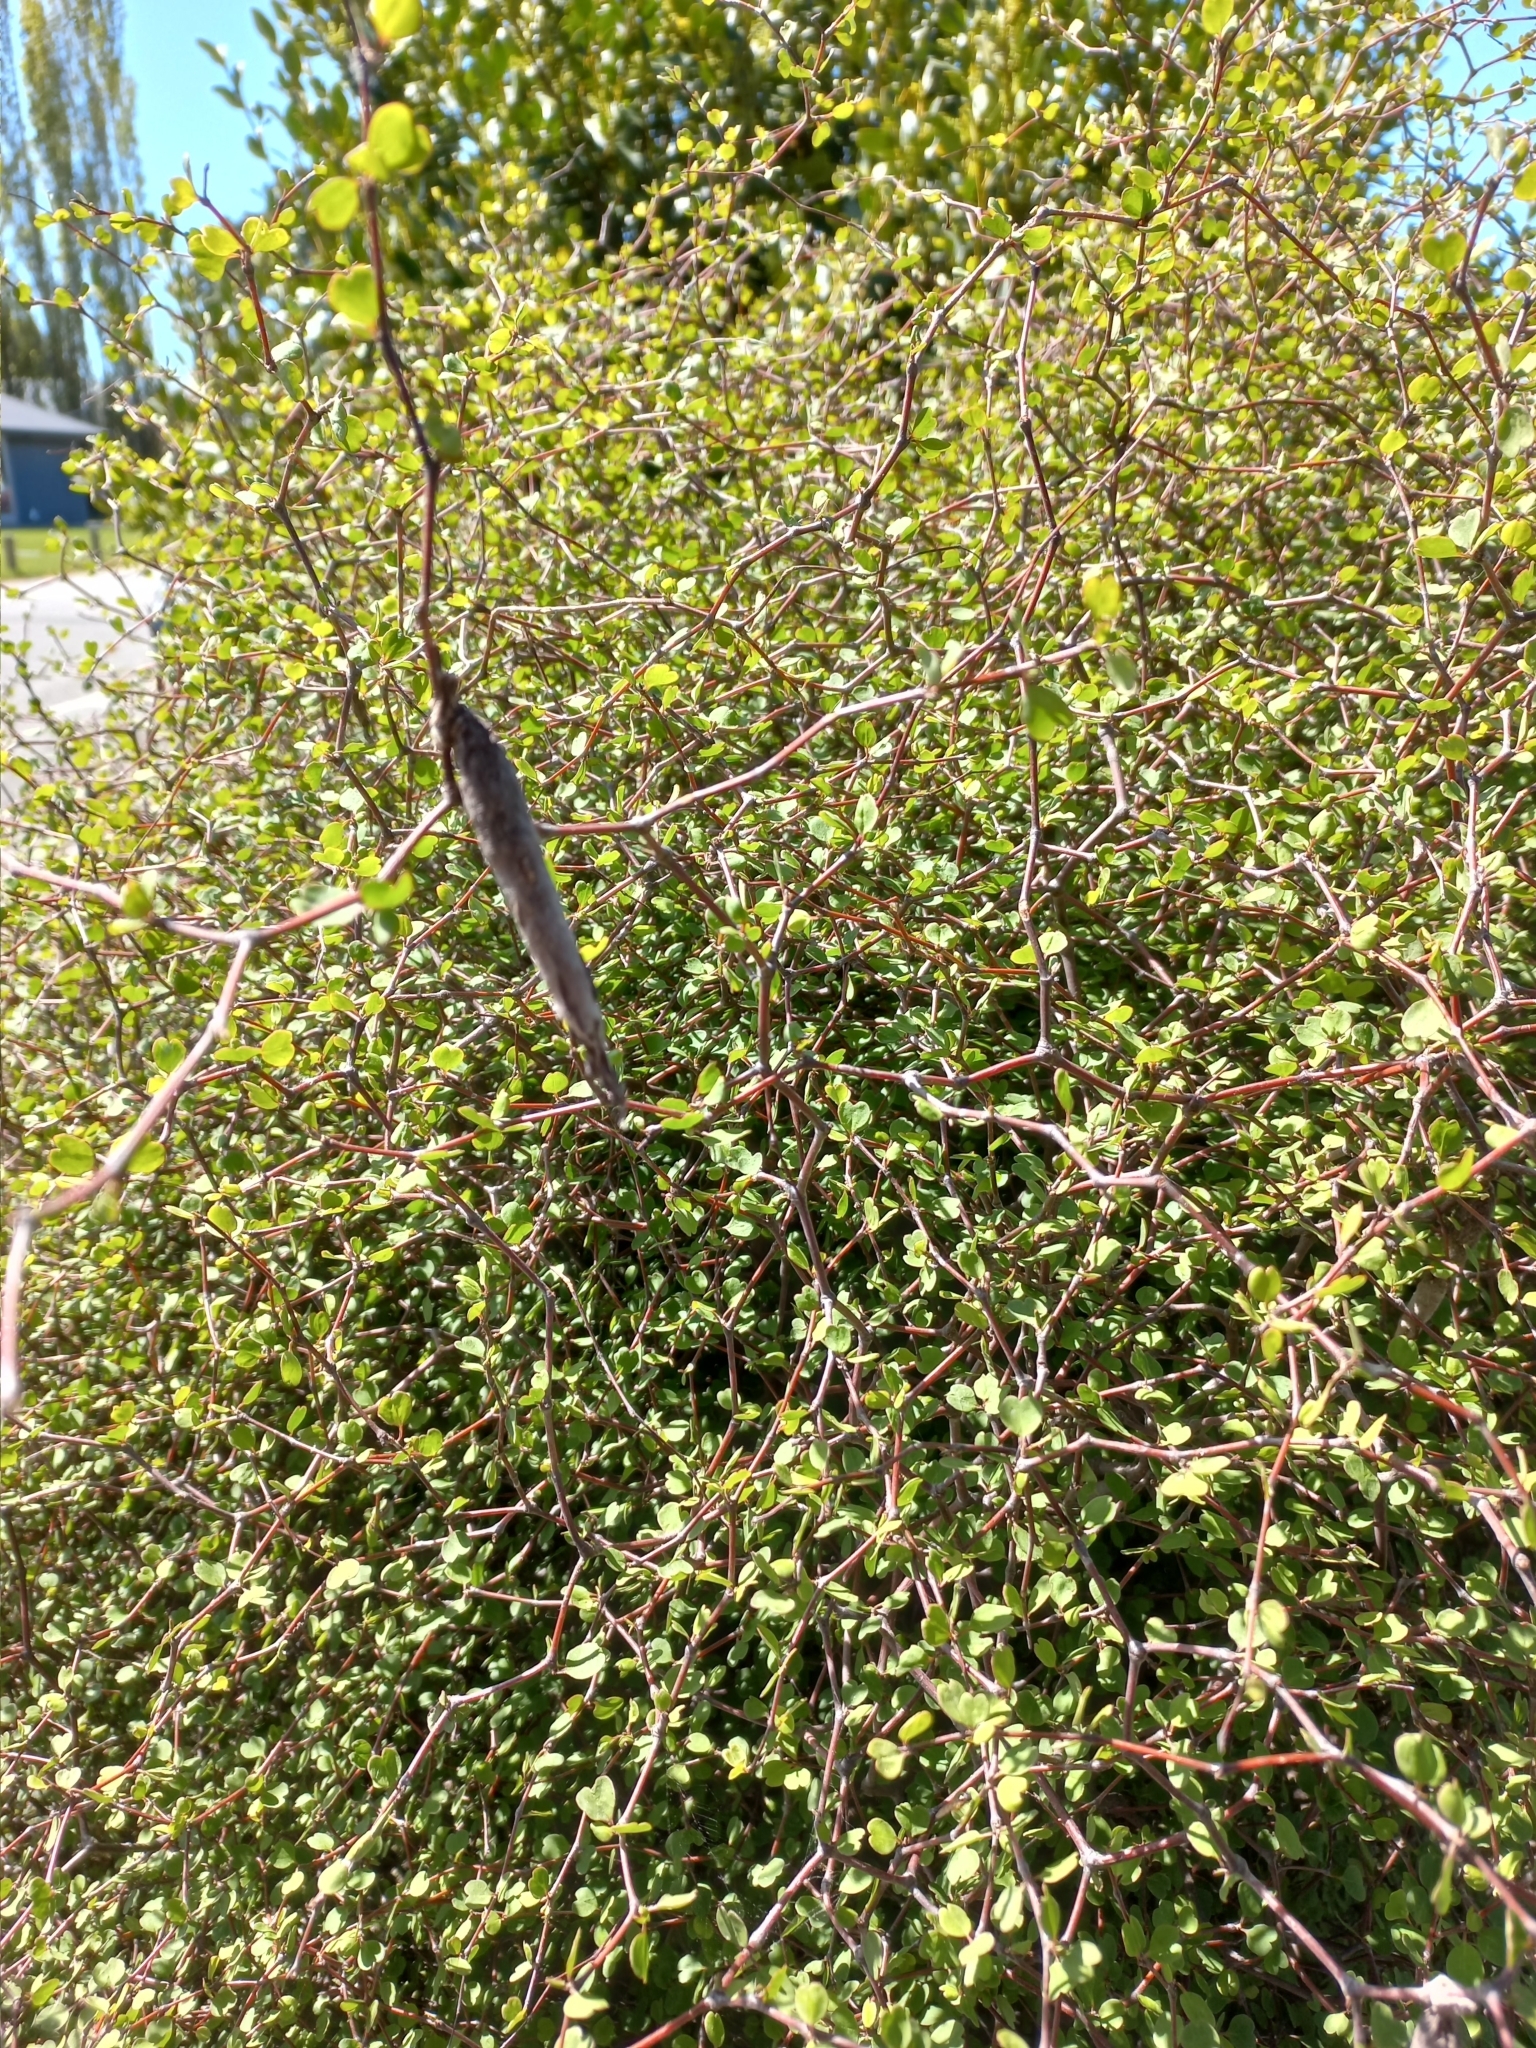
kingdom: Animalia
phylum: Arthropoda
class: Insecta
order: Lepidoptera
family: Psychidae
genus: Liothula
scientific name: Liothula omnivora
